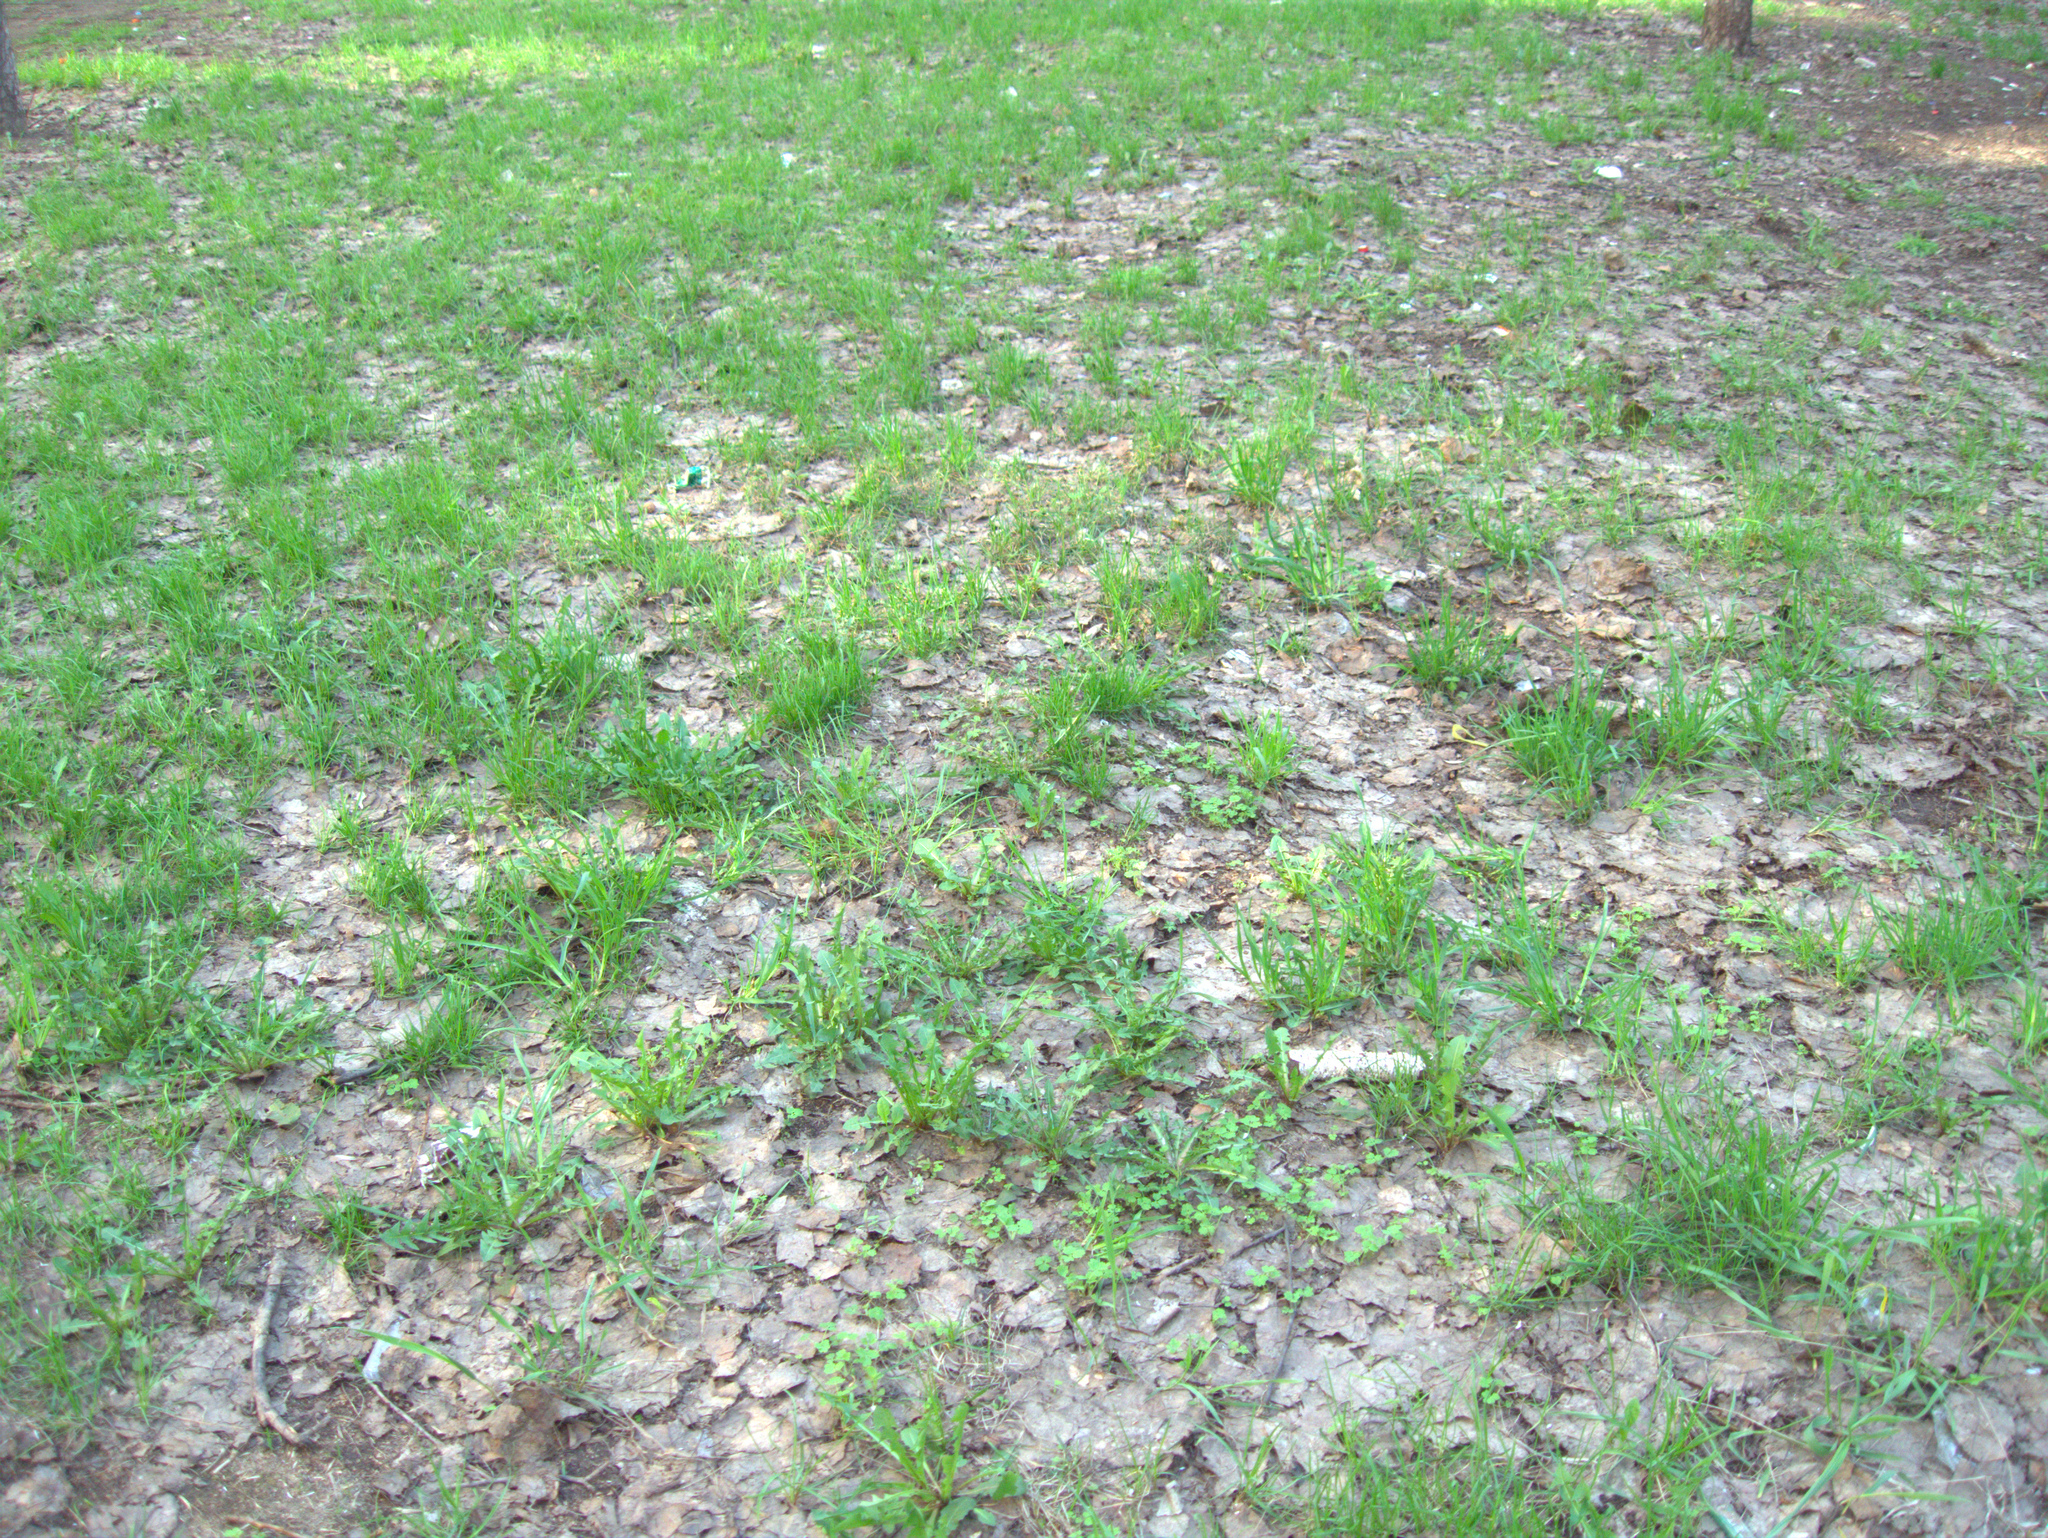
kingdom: Plantae
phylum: Tracheophyta
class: Magnoliopsida
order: Ranunculales
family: Papaveraceae
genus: Chelidonium
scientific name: Chelidonium majus
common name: Greater celandine
